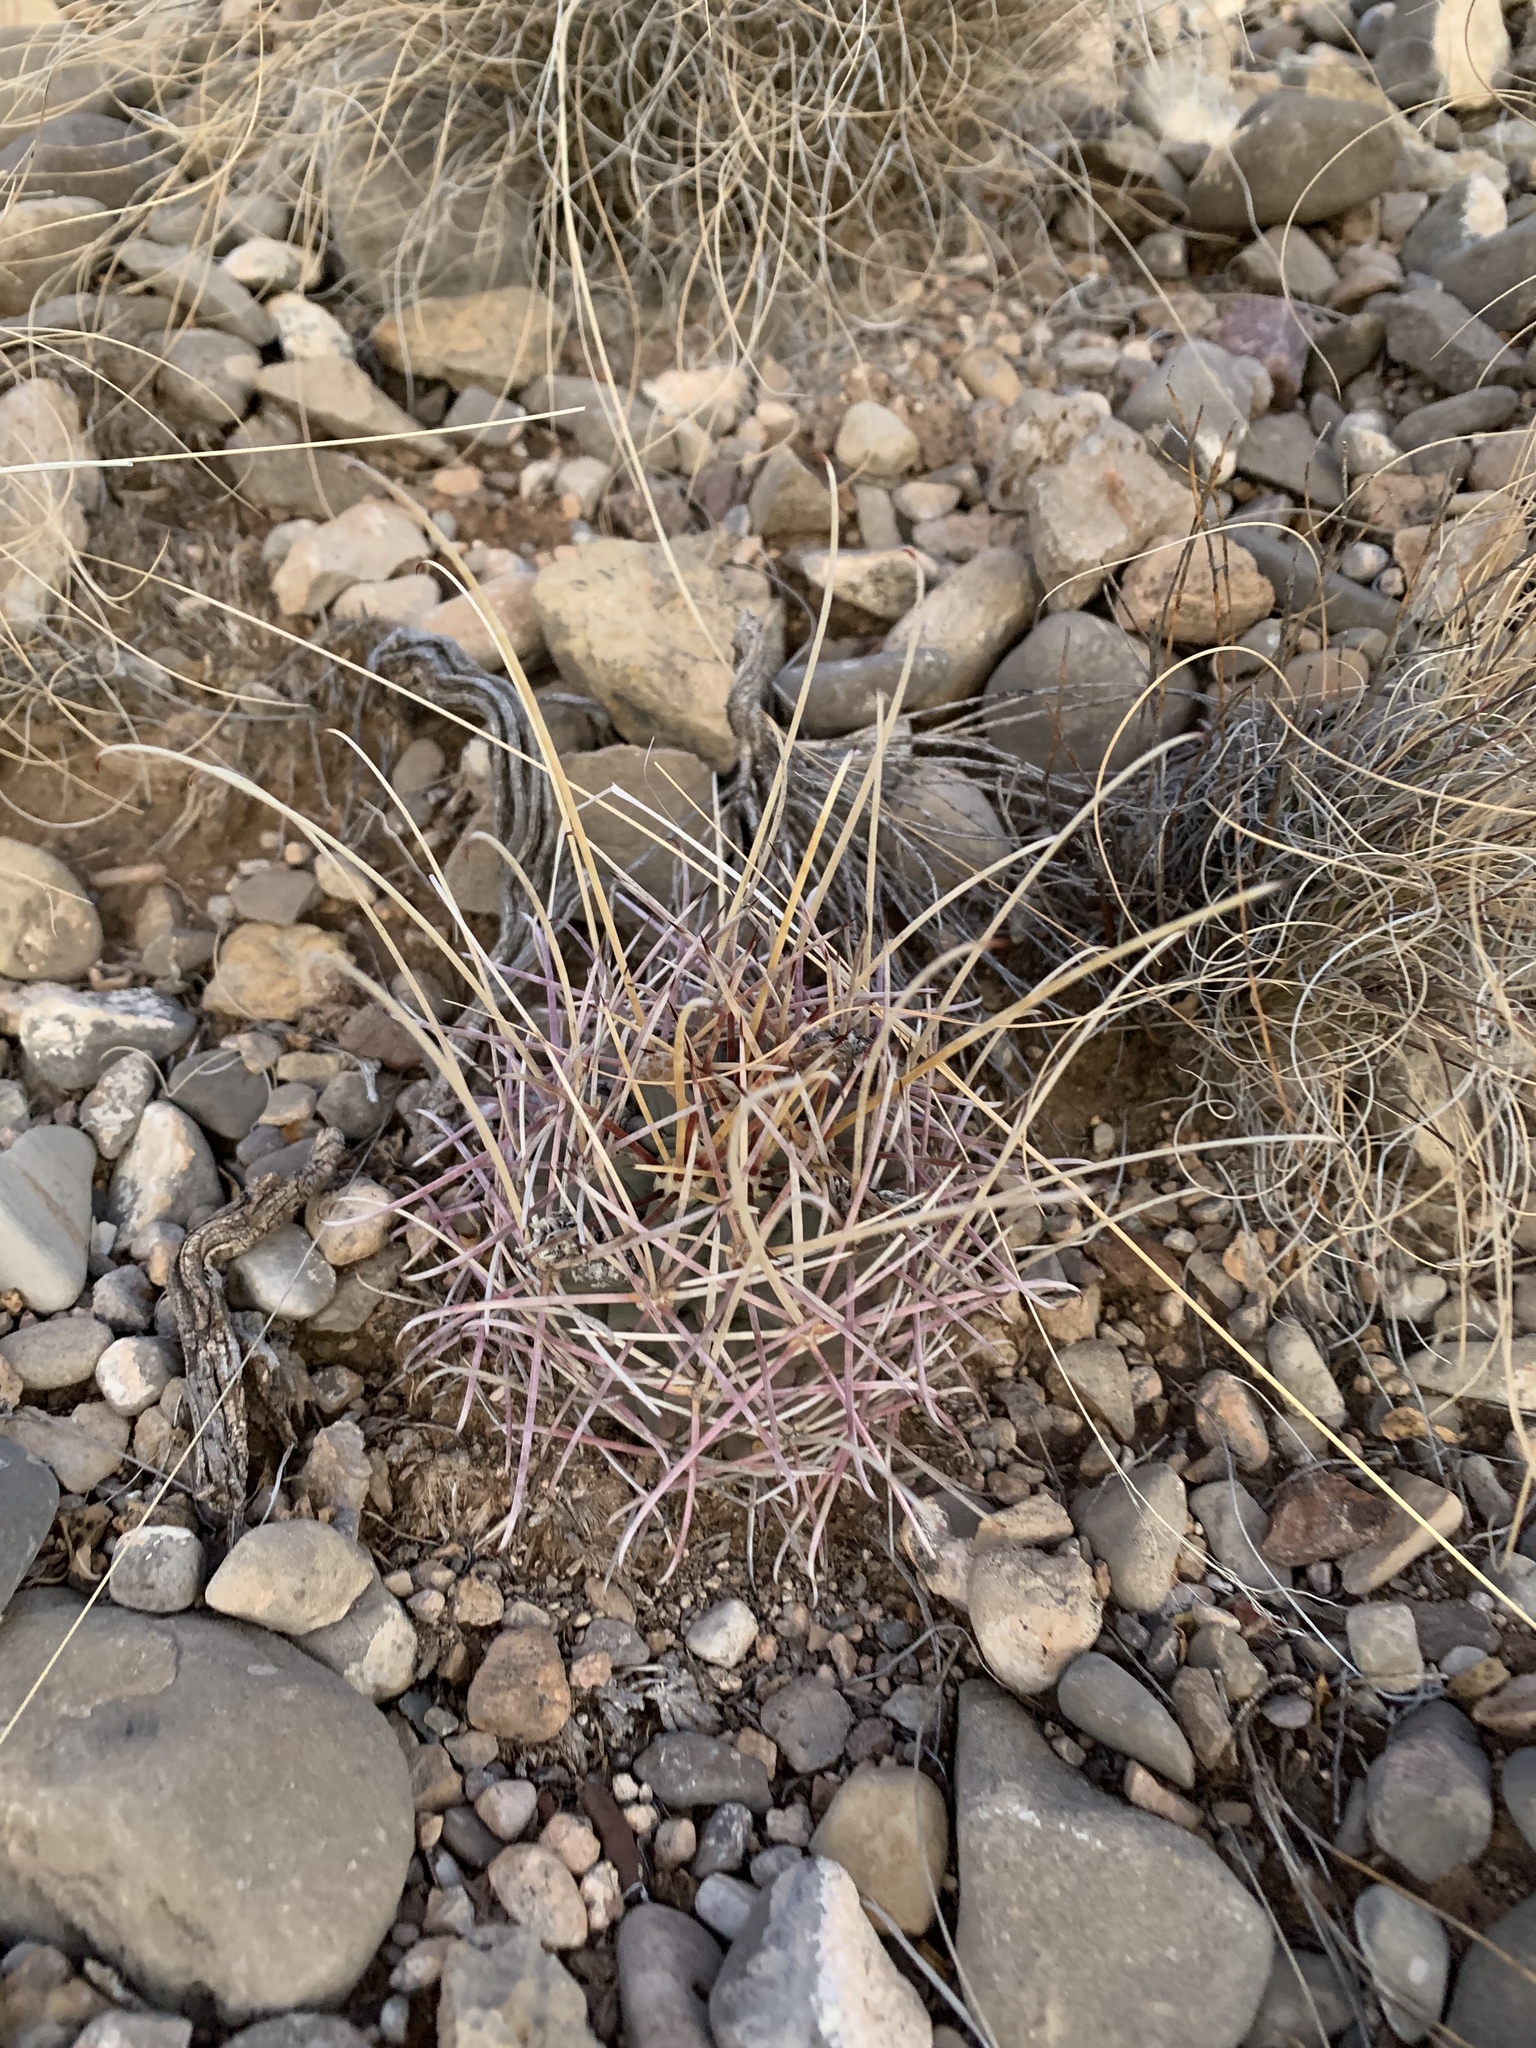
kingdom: Plantae
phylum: Tracheophyta
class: Magnoliopsida
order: Caryophyllales
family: Cactaceae
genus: Ferocactus
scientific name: Ferocactus uncinatus
